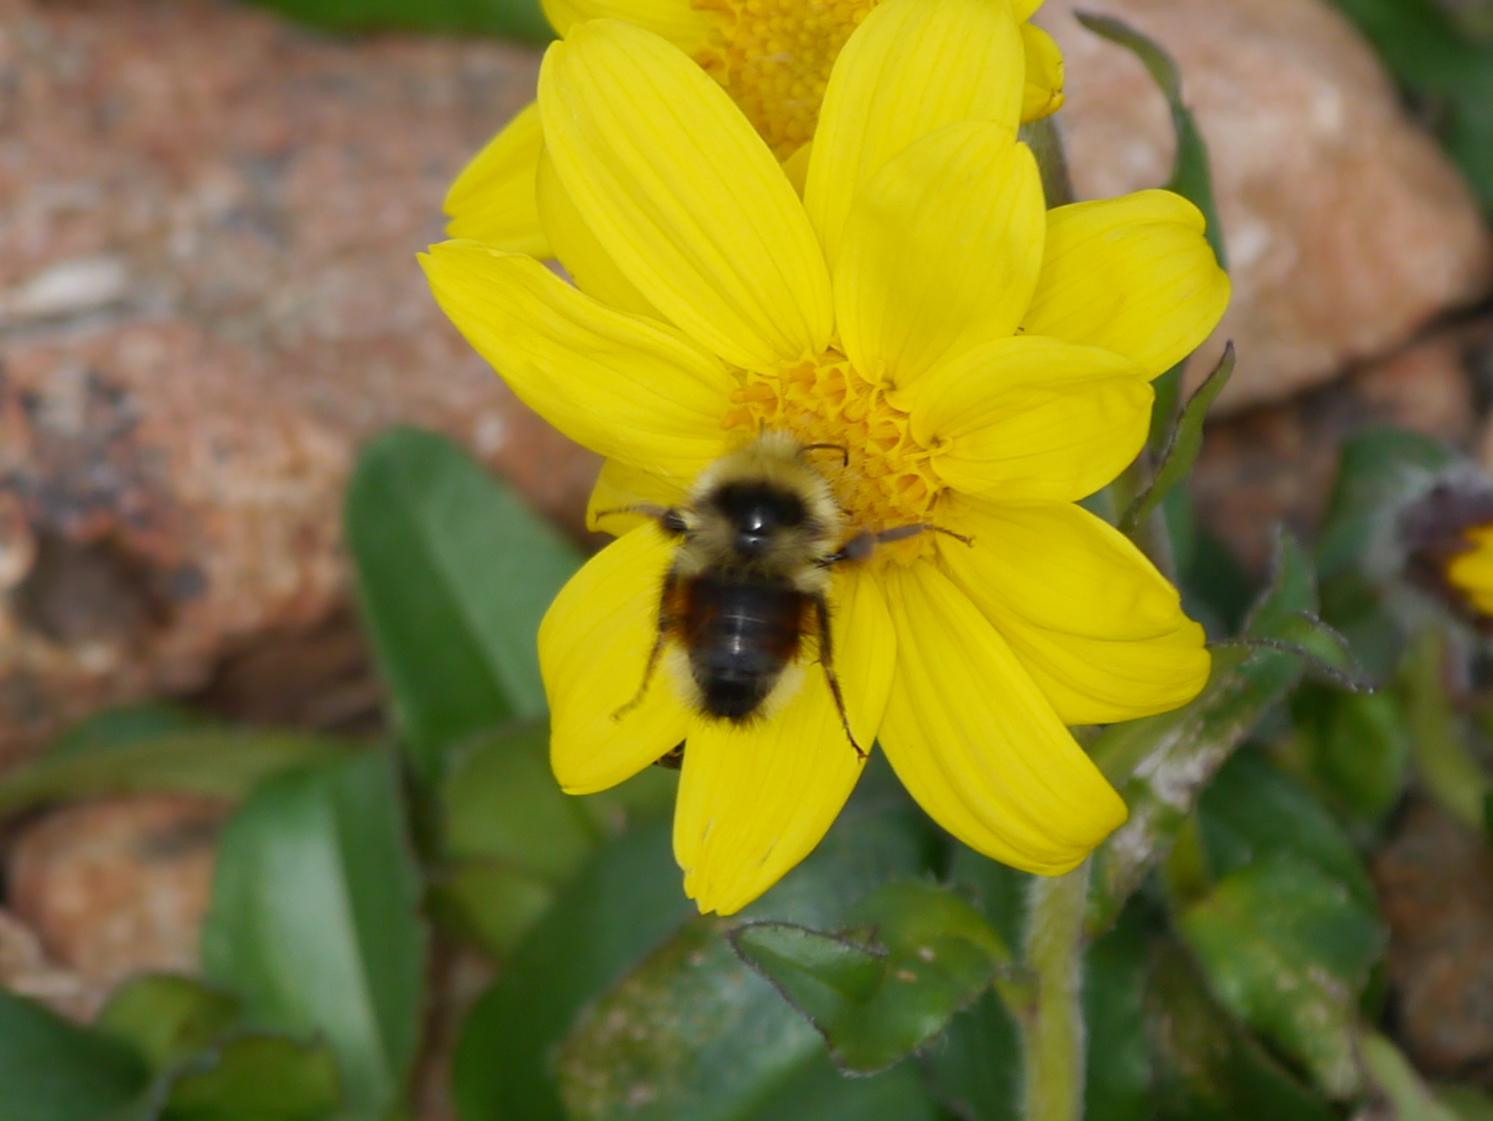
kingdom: Animalia
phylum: Arthropoda
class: Insecta
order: Hymenoptera
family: Apidae
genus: Bombus
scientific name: Bombus sylvicola
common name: Forest bumble bee
